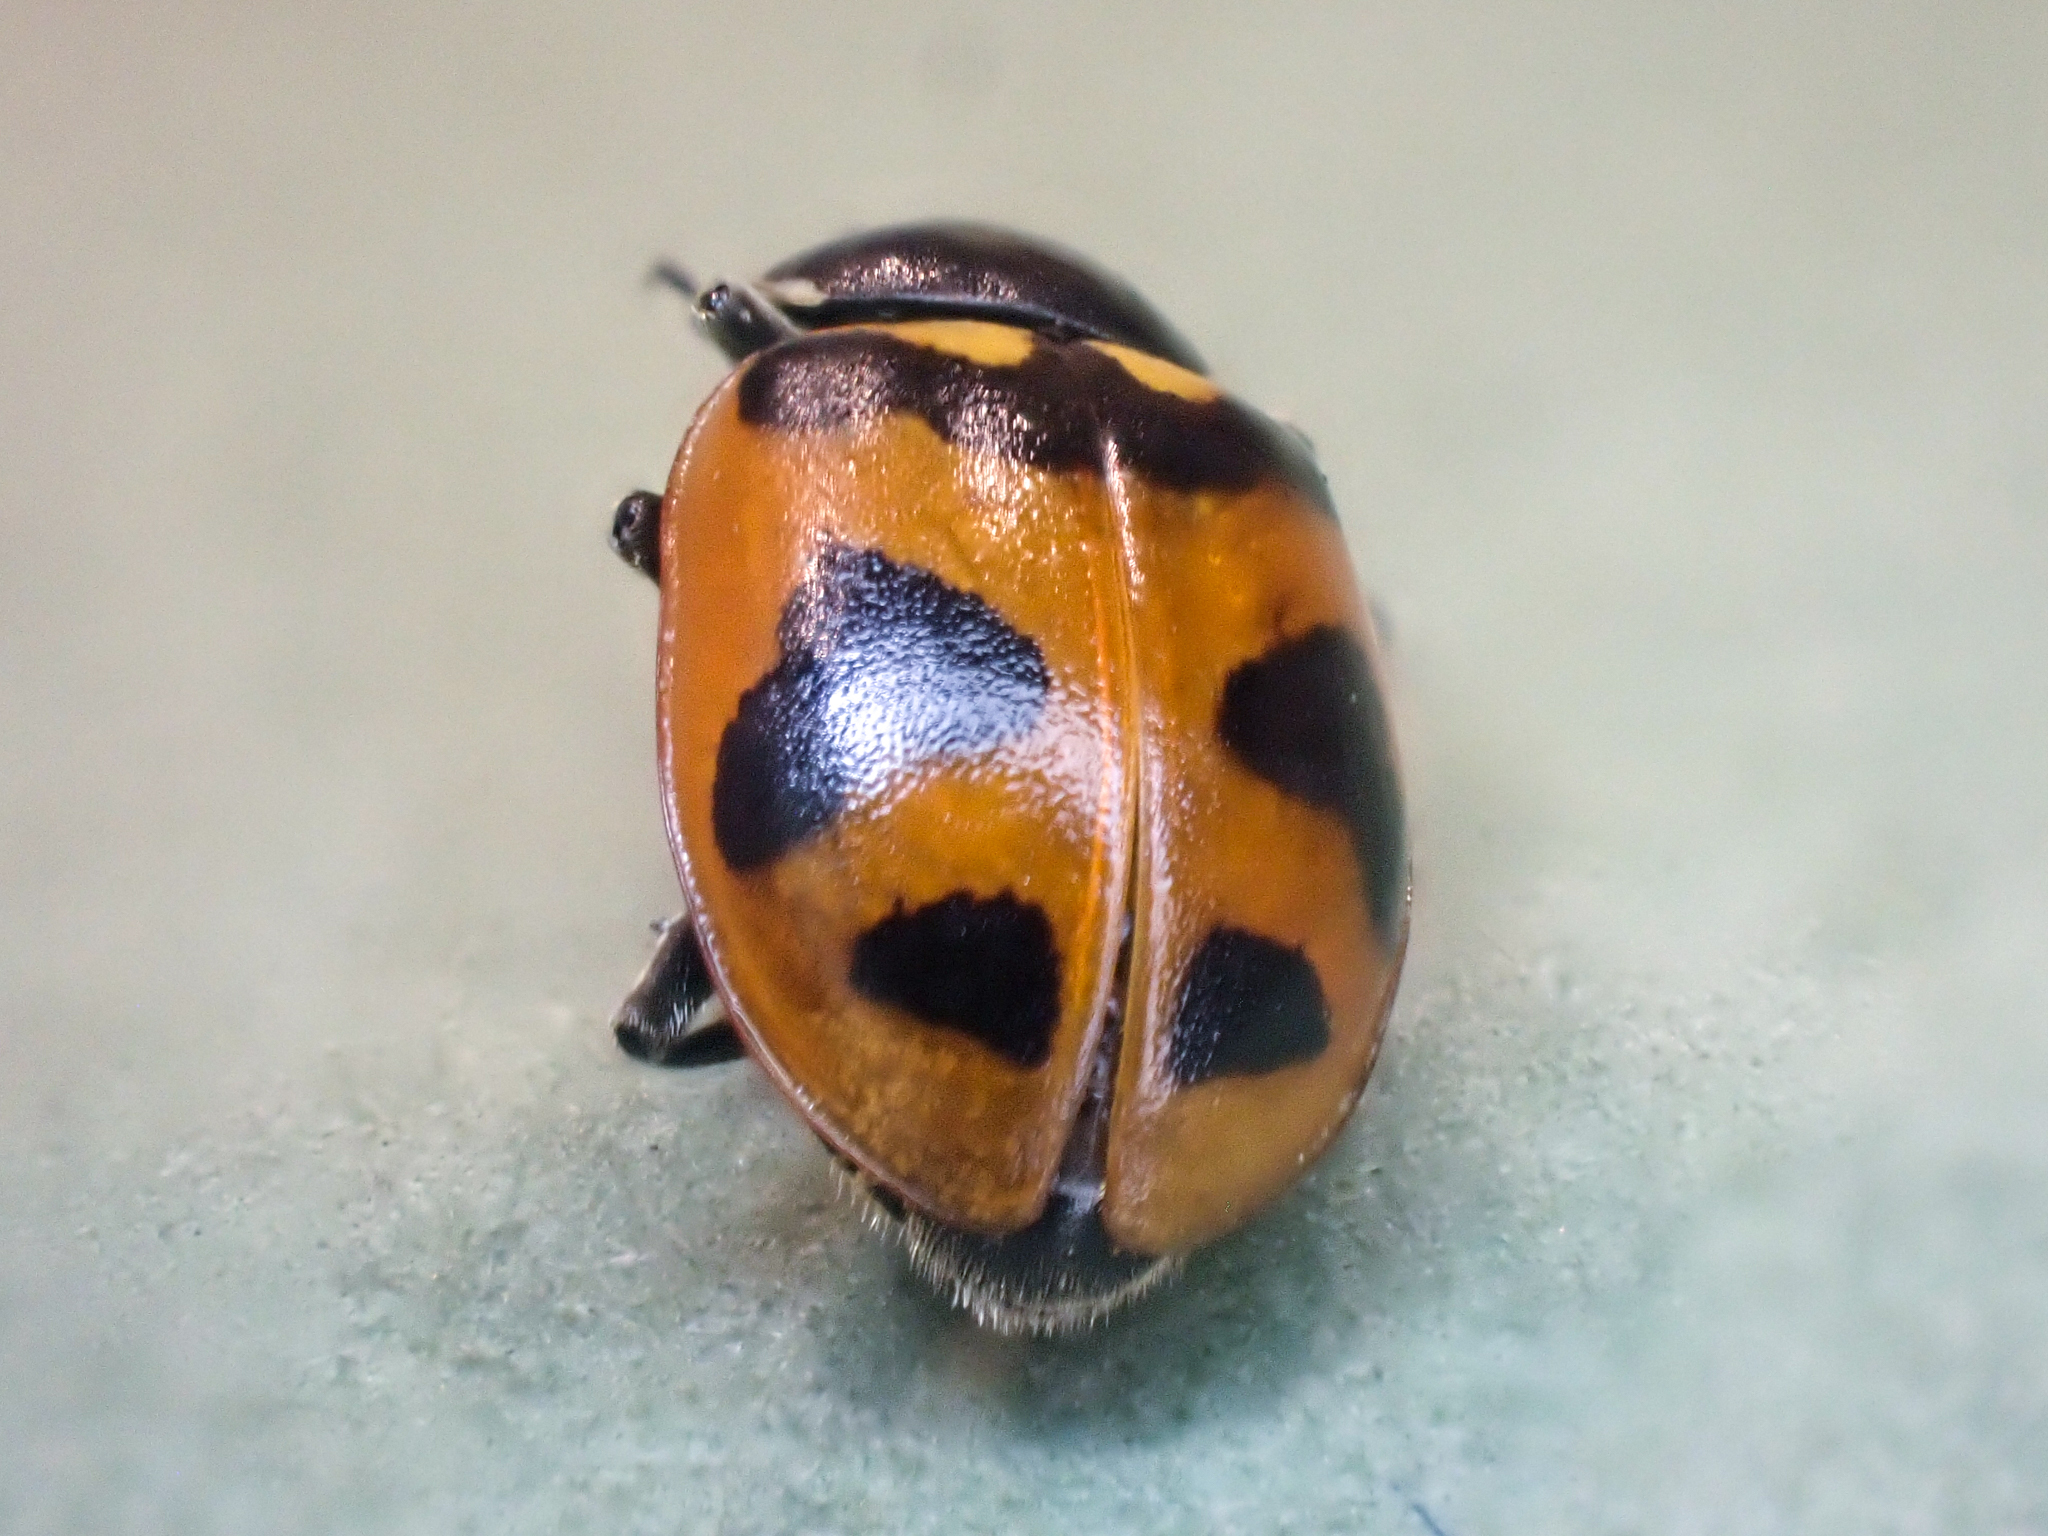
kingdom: Animalia
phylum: Arthropoda
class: Insecta
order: Coleoptera
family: Coccinellidae
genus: Hippodamia
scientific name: Hippodamia oregonensis
